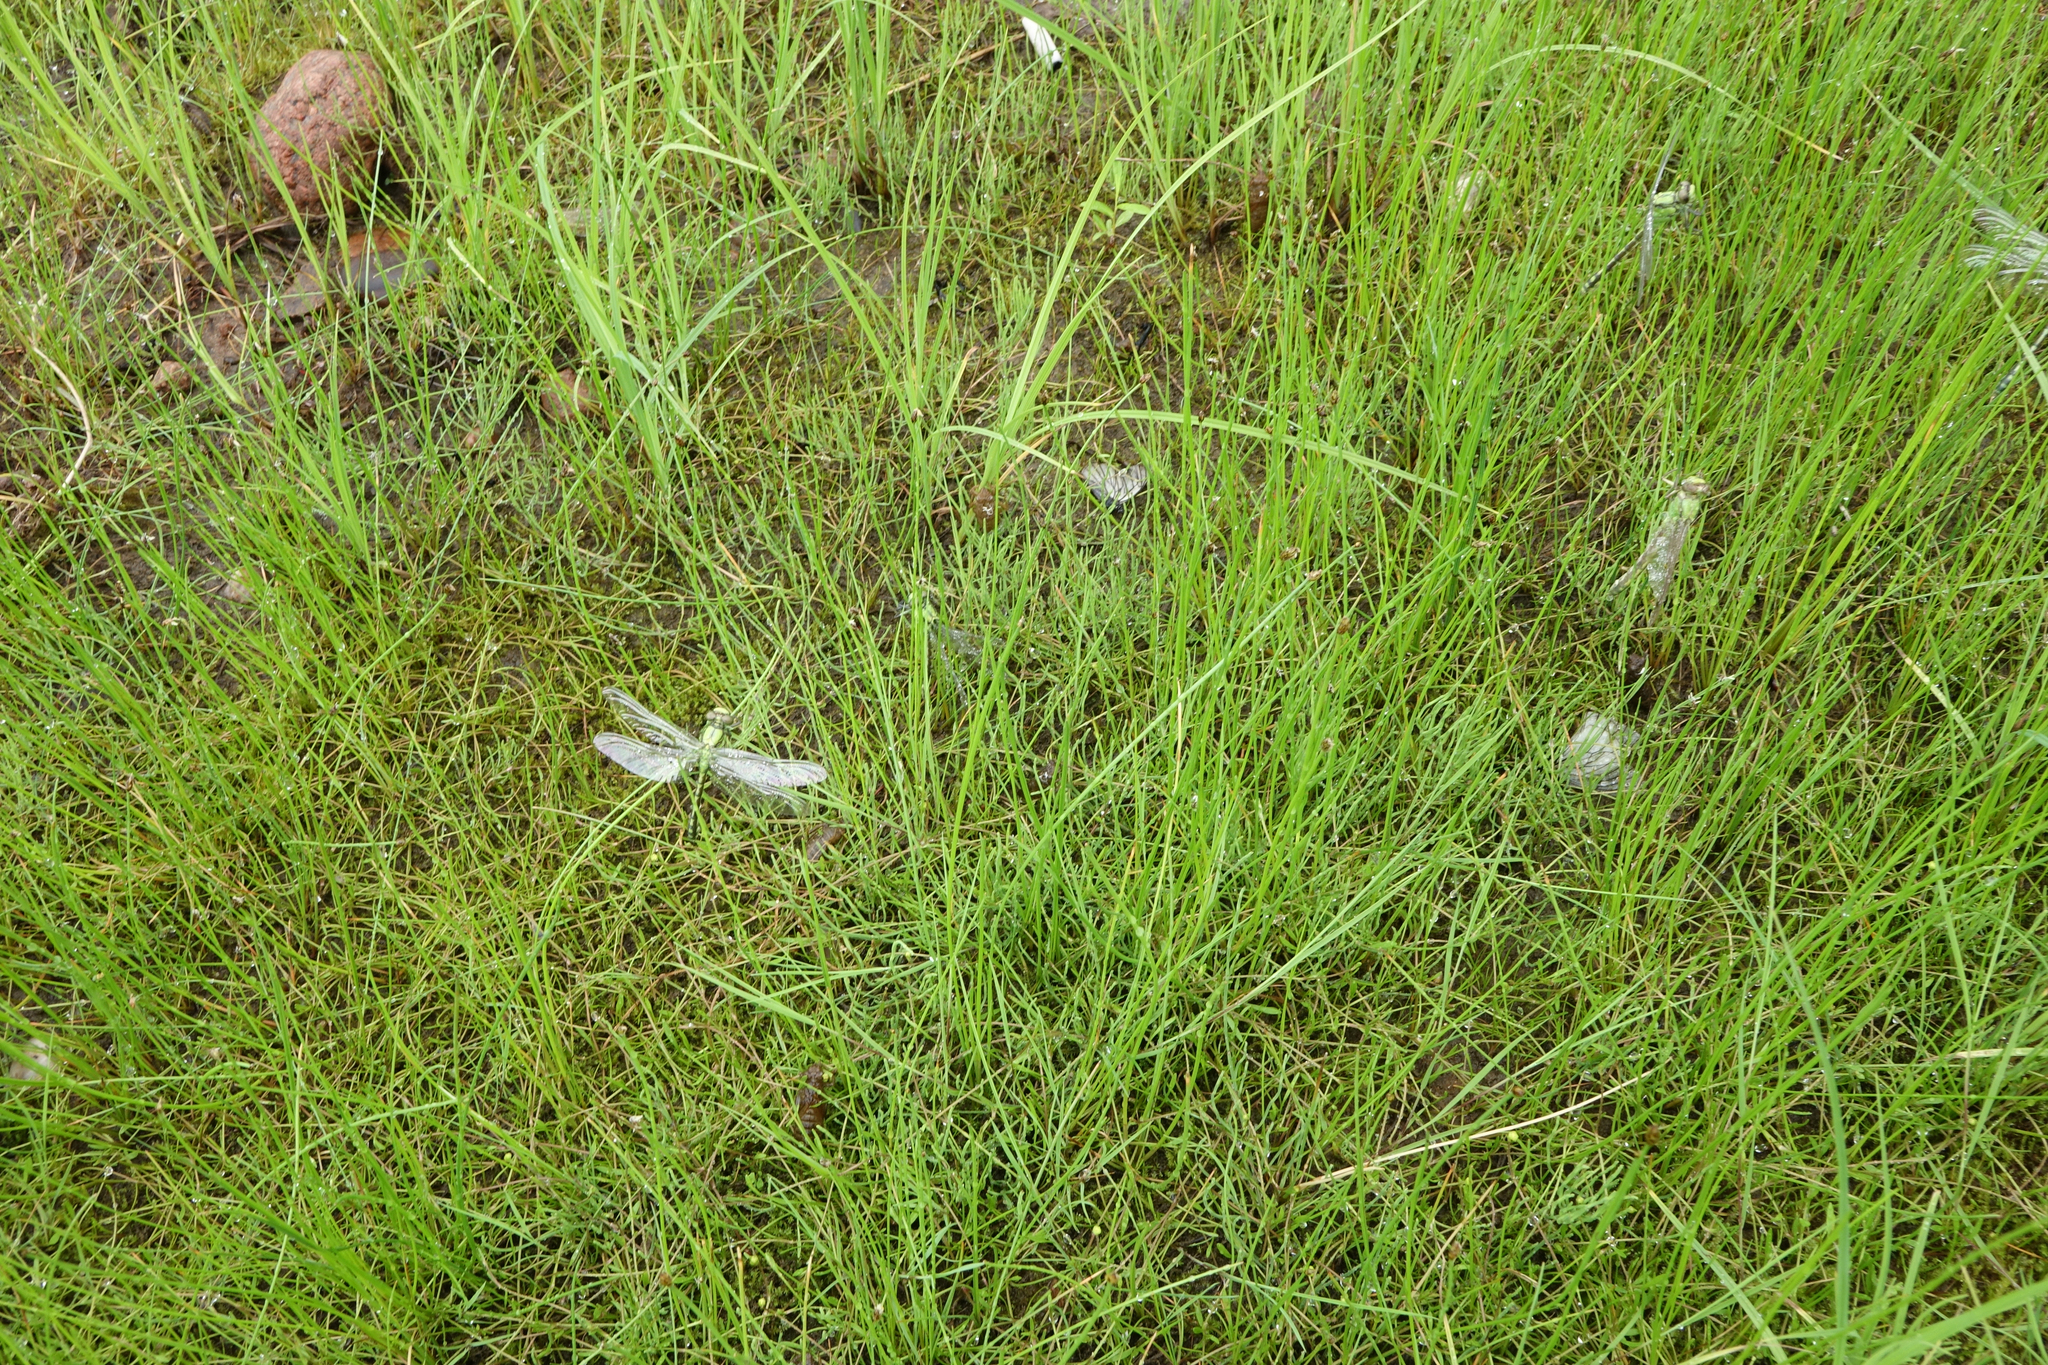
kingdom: Animalia
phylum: Arthropoda
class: Insecta
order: Odonata
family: Gomphidae
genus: Ophiogomphus
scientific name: Ophiogomphus obscurus
